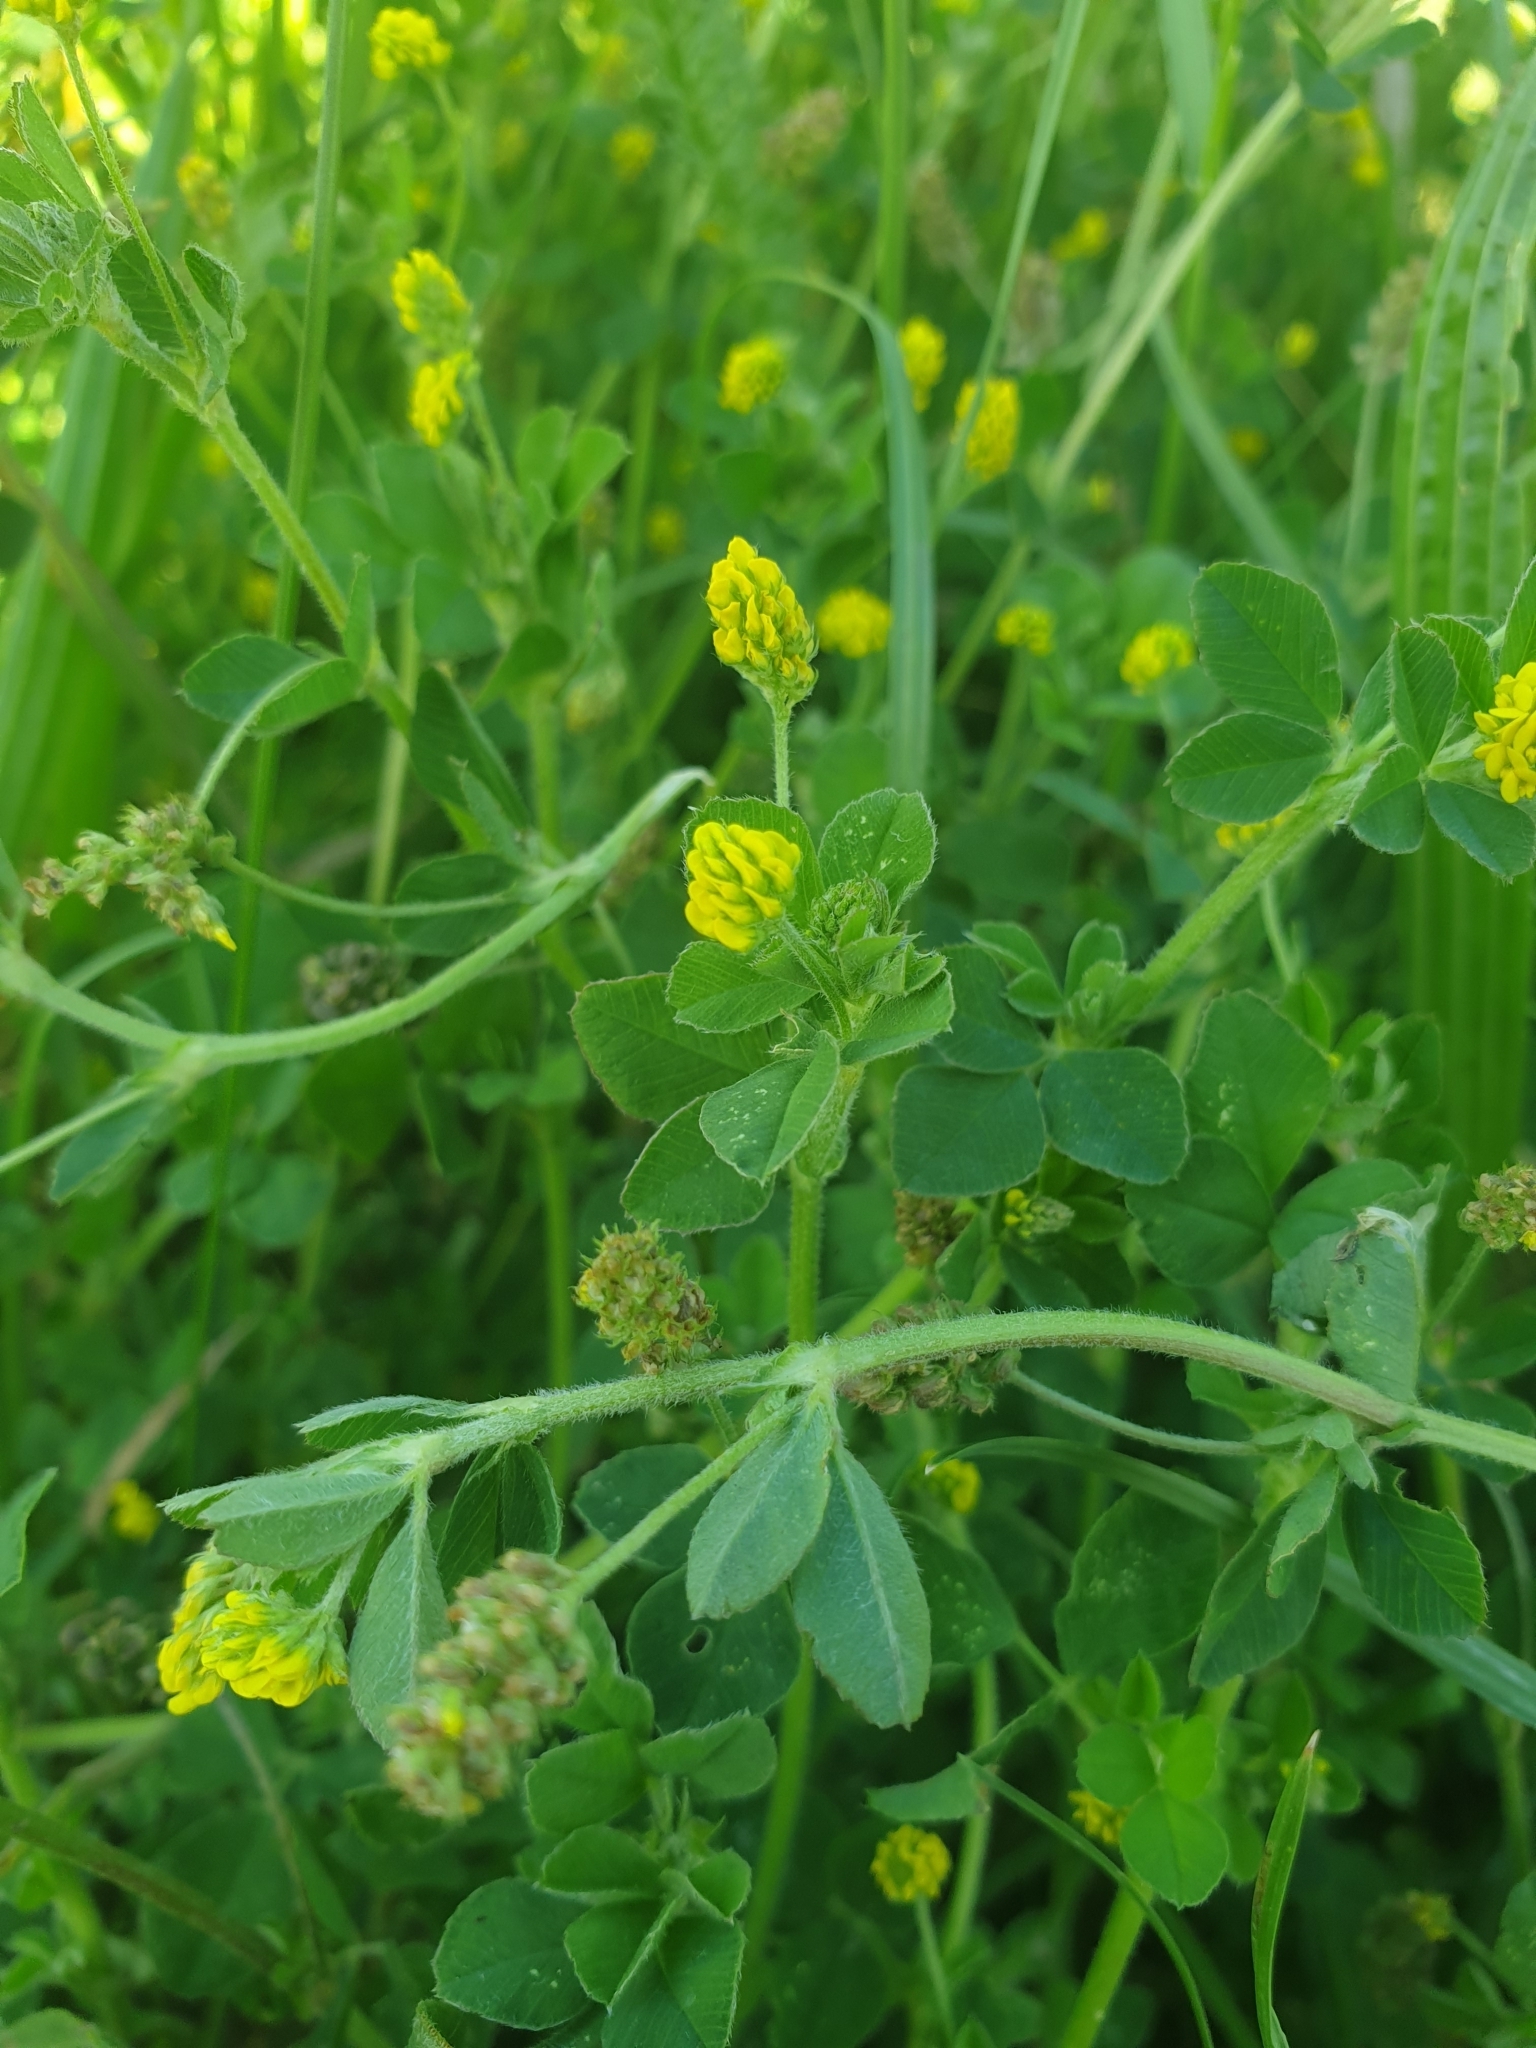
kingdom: Plantae
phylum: Tracheophyta
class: Magnoliopsida
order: Fabales
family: Fabaceae
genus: Medicago
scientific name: Medicago lupulina
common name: Black medick
